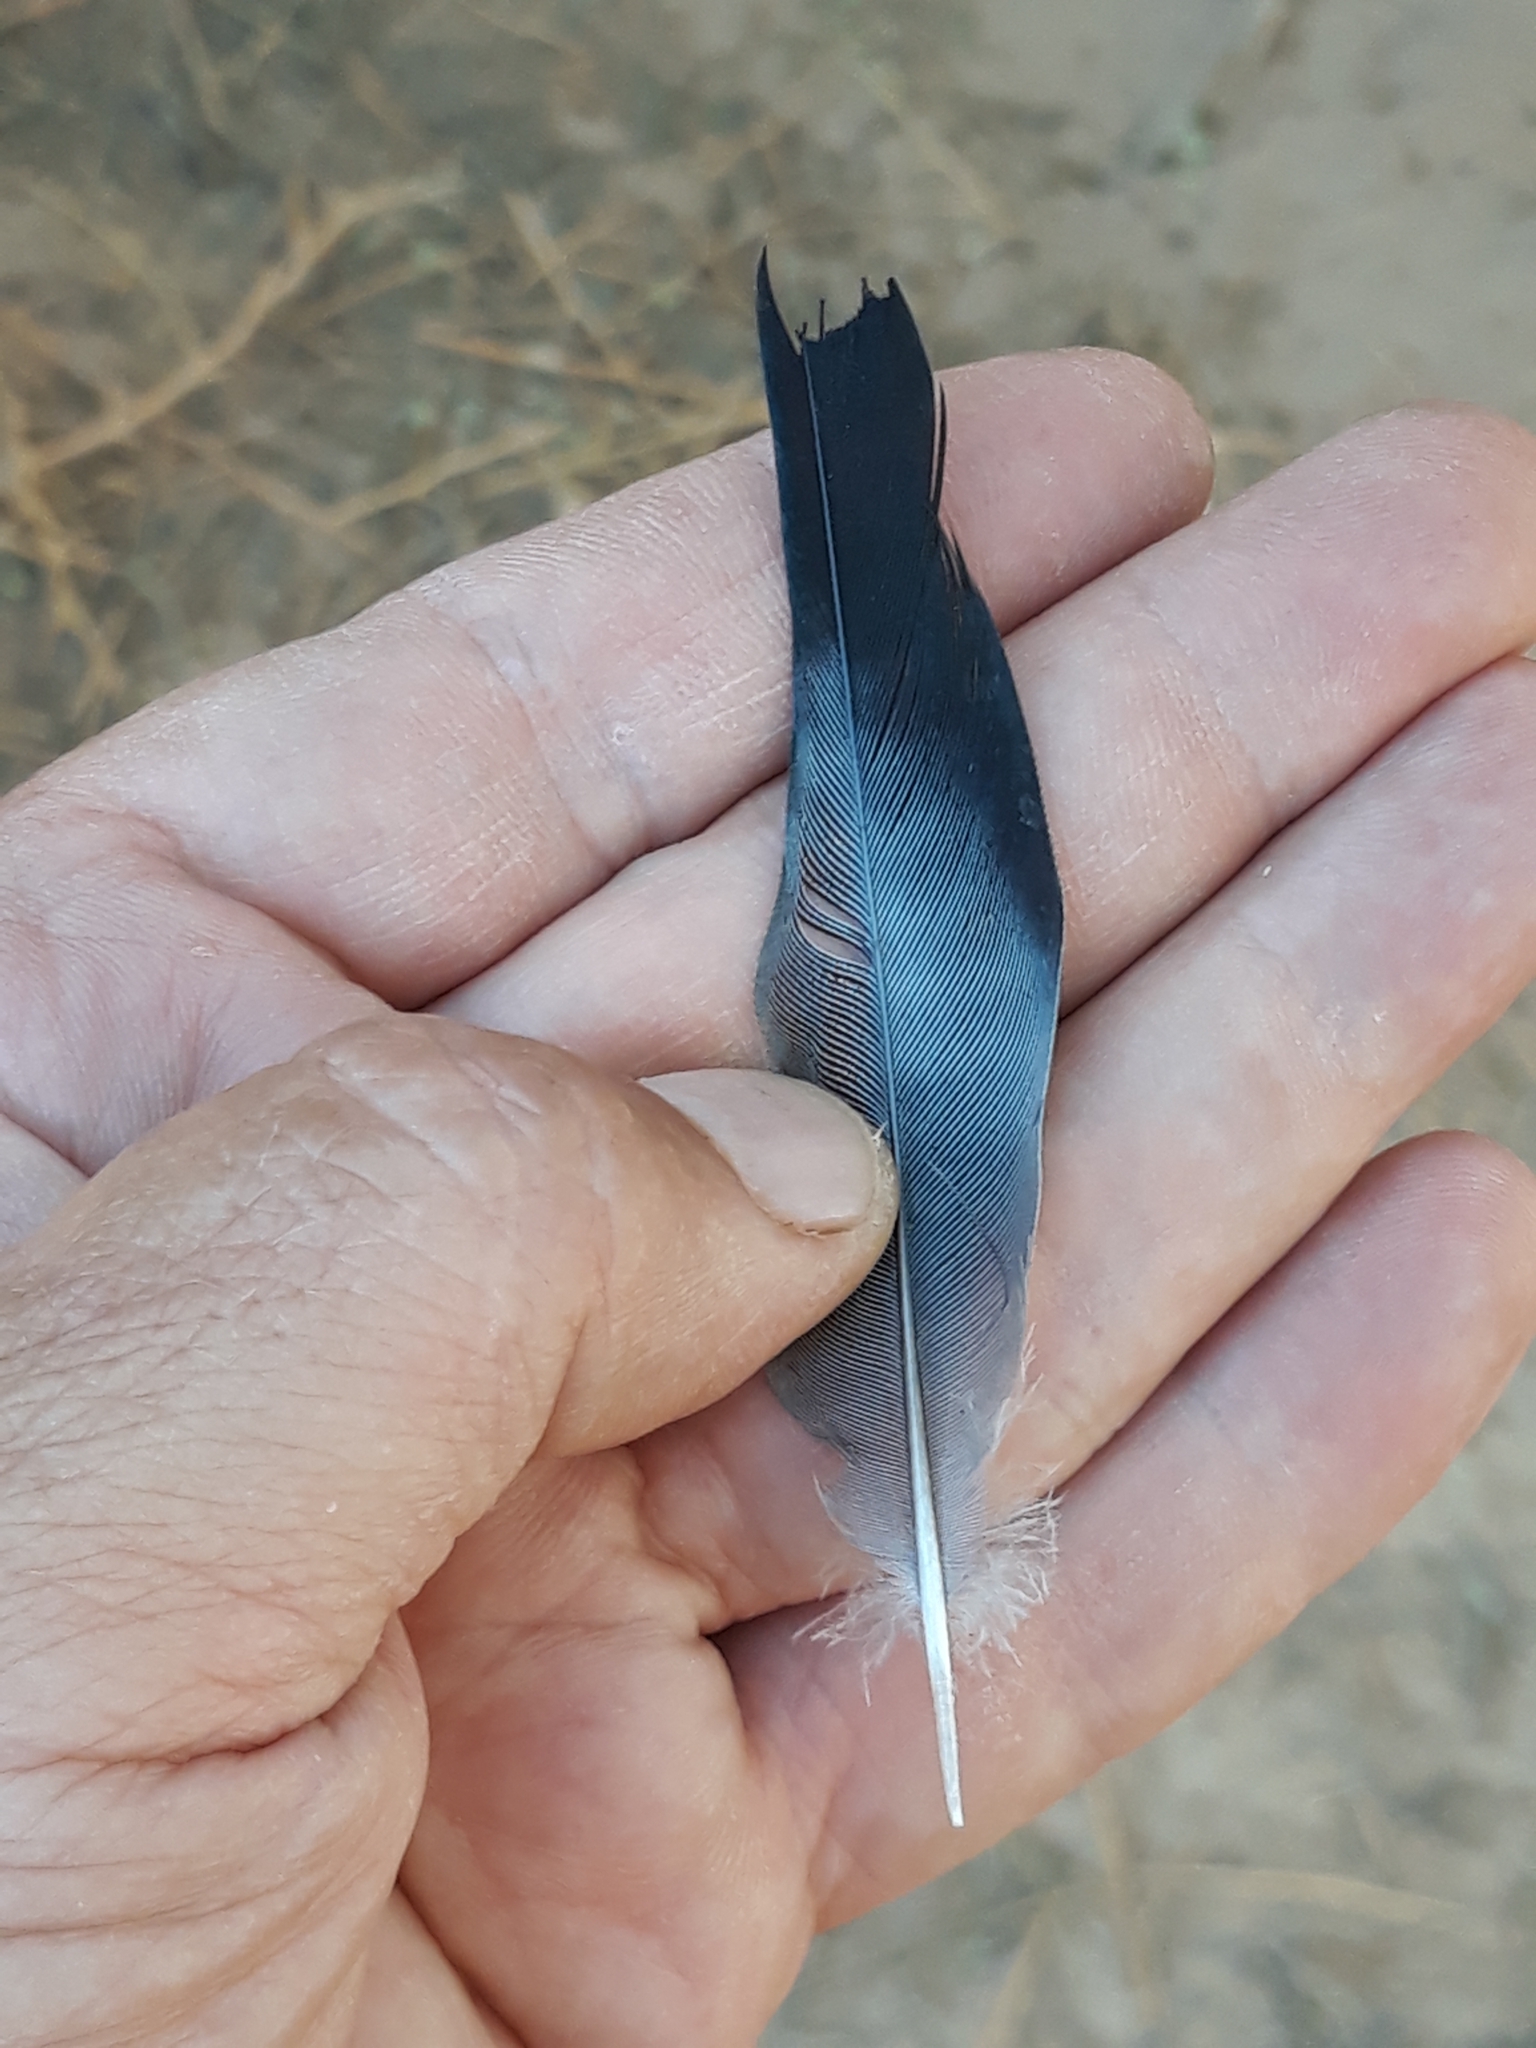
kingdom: Animalia
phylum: Chordata
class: Aves
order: Columbiformes
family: Columbidae
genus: Oena
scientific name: Oena capensis
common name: Namaqua dove
